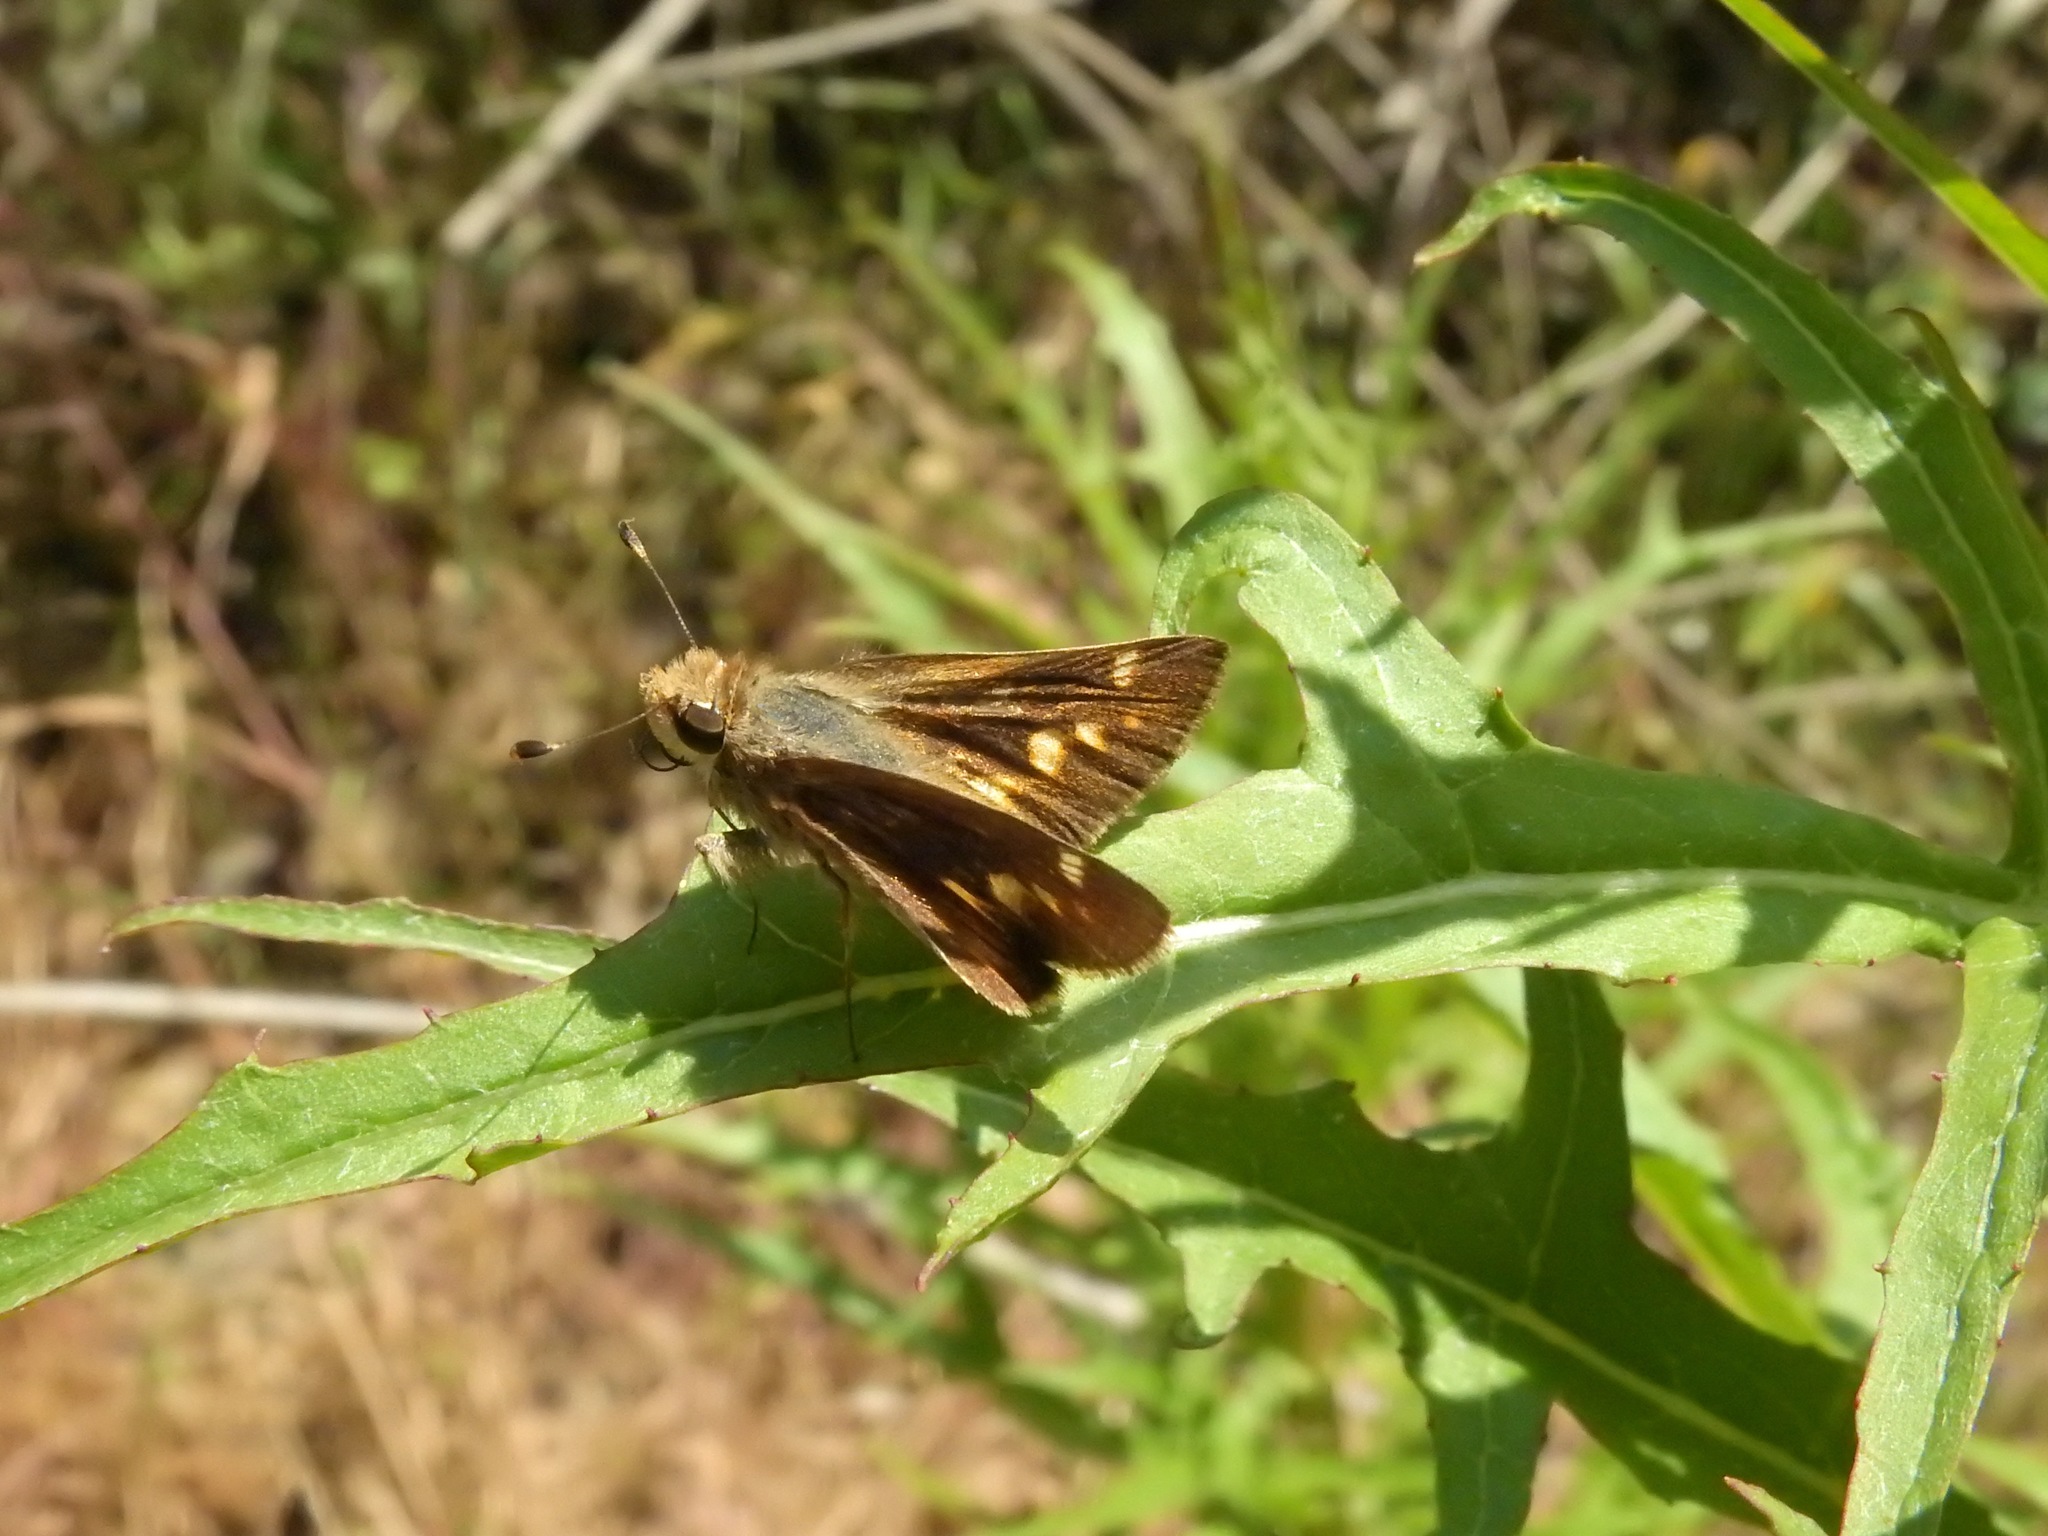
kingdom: Animalia
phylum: Arthropoda
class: Insecta
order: Lepidoptera
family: Hesperiidae
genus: Lon
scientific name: Lon melane
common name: Umber skipper
